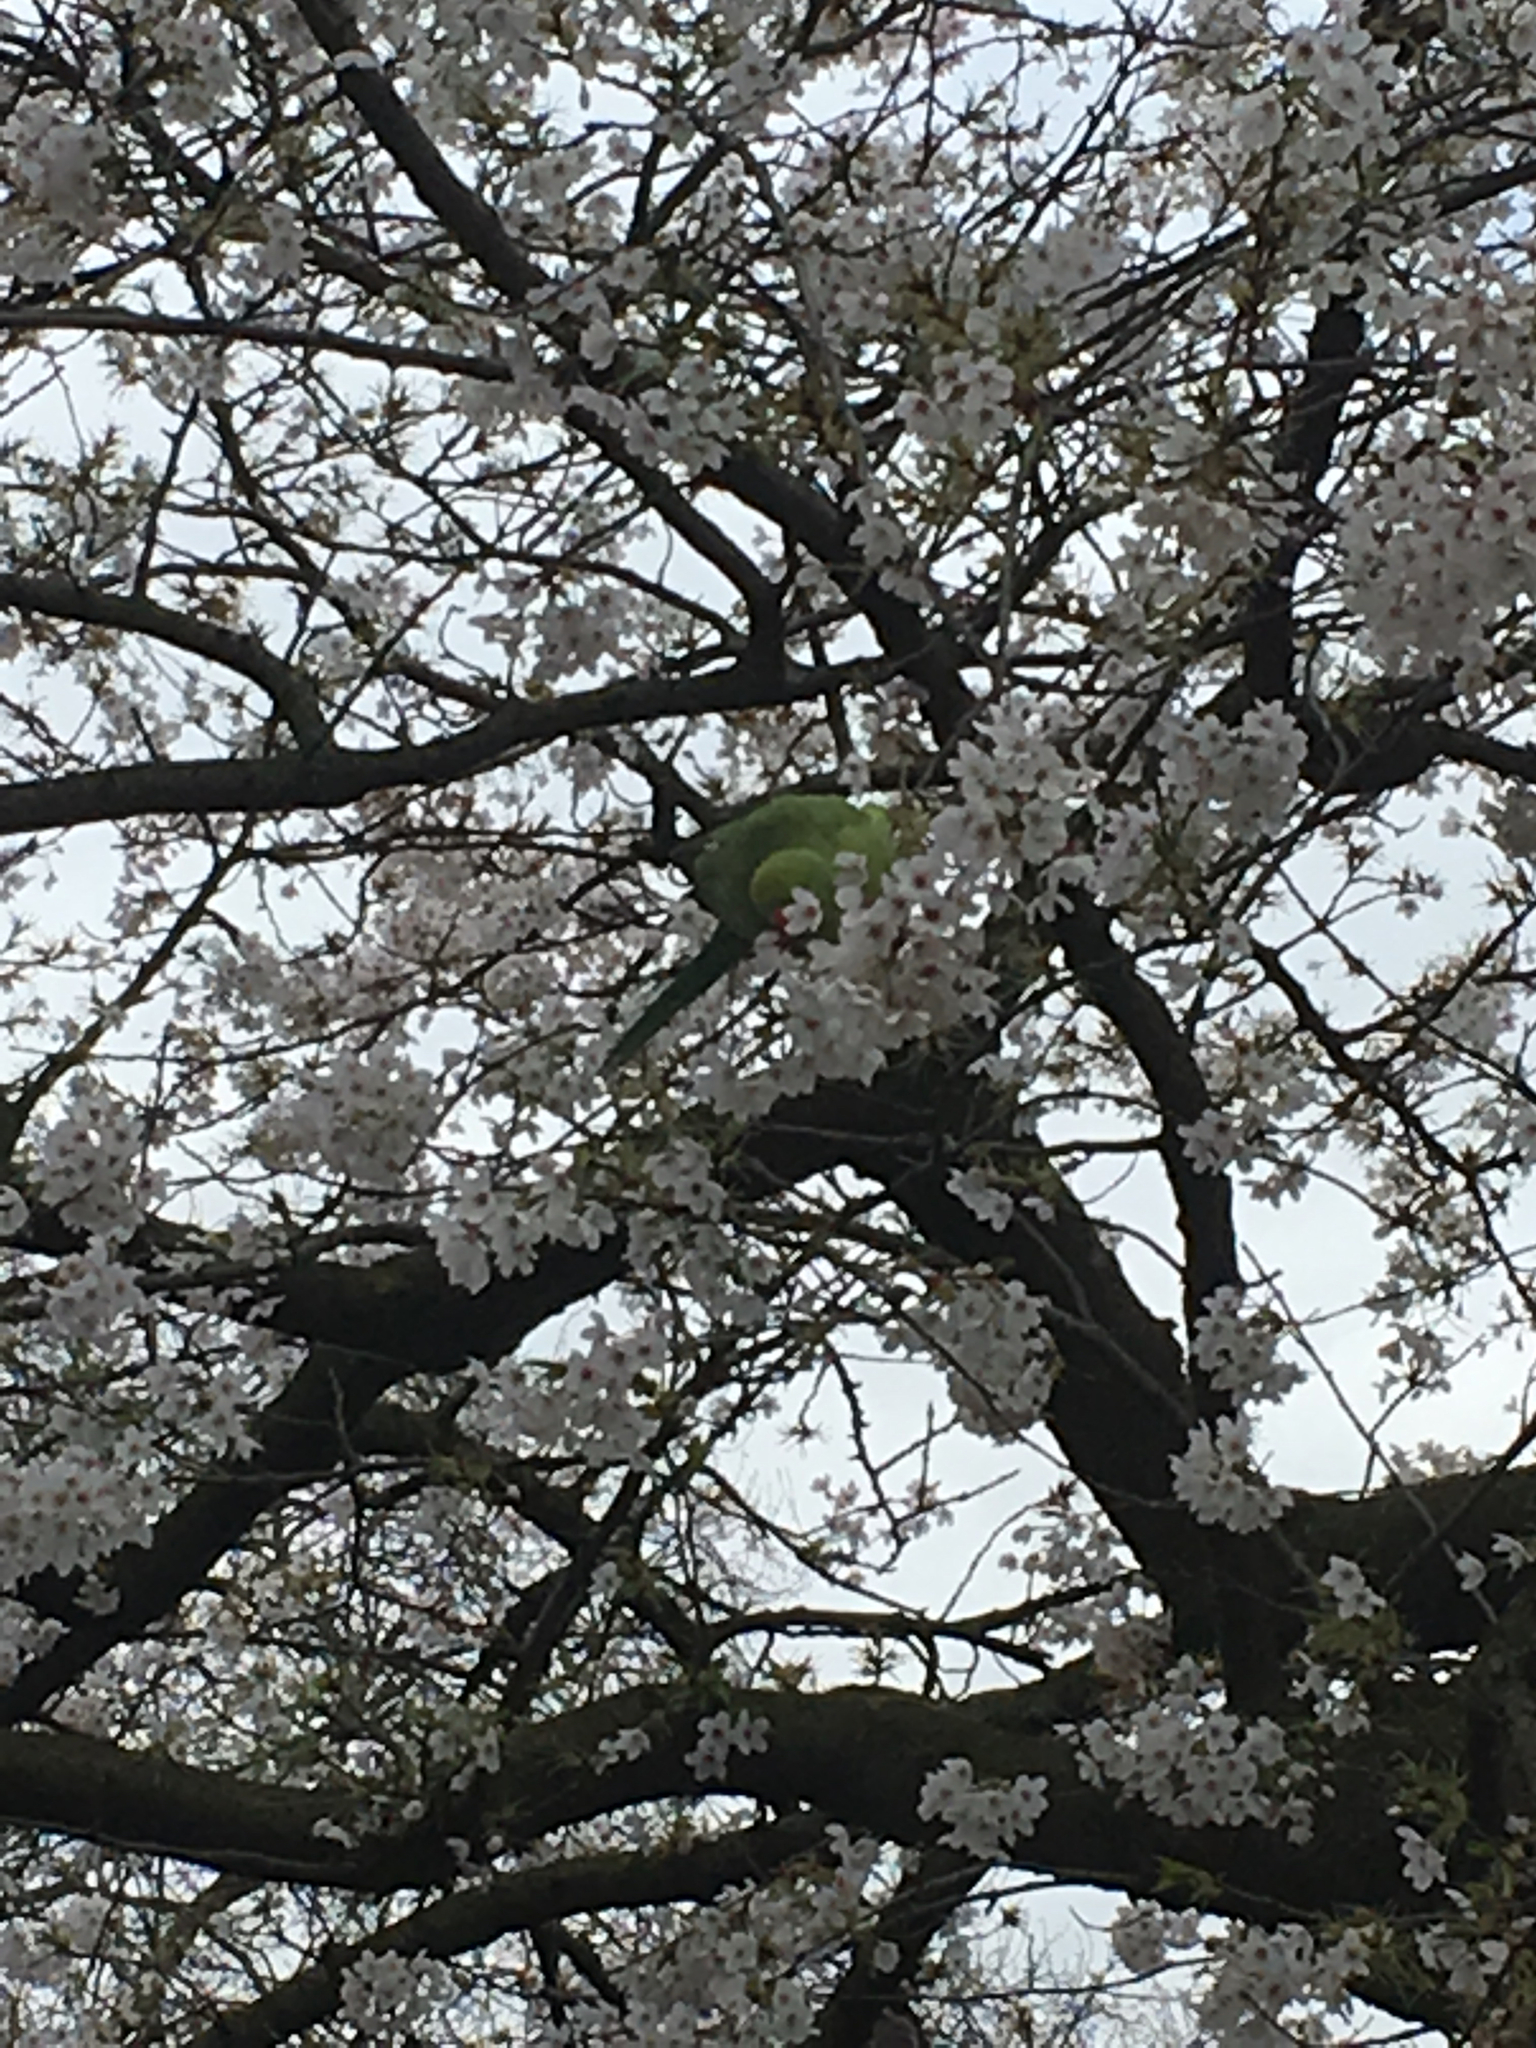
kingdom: Animalia
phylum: Chordata
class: Aves
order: Psittaciformes
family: Psittacidae
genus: Psittacula
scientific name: Psittacula krameri
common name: Rose-ringed parakeet
